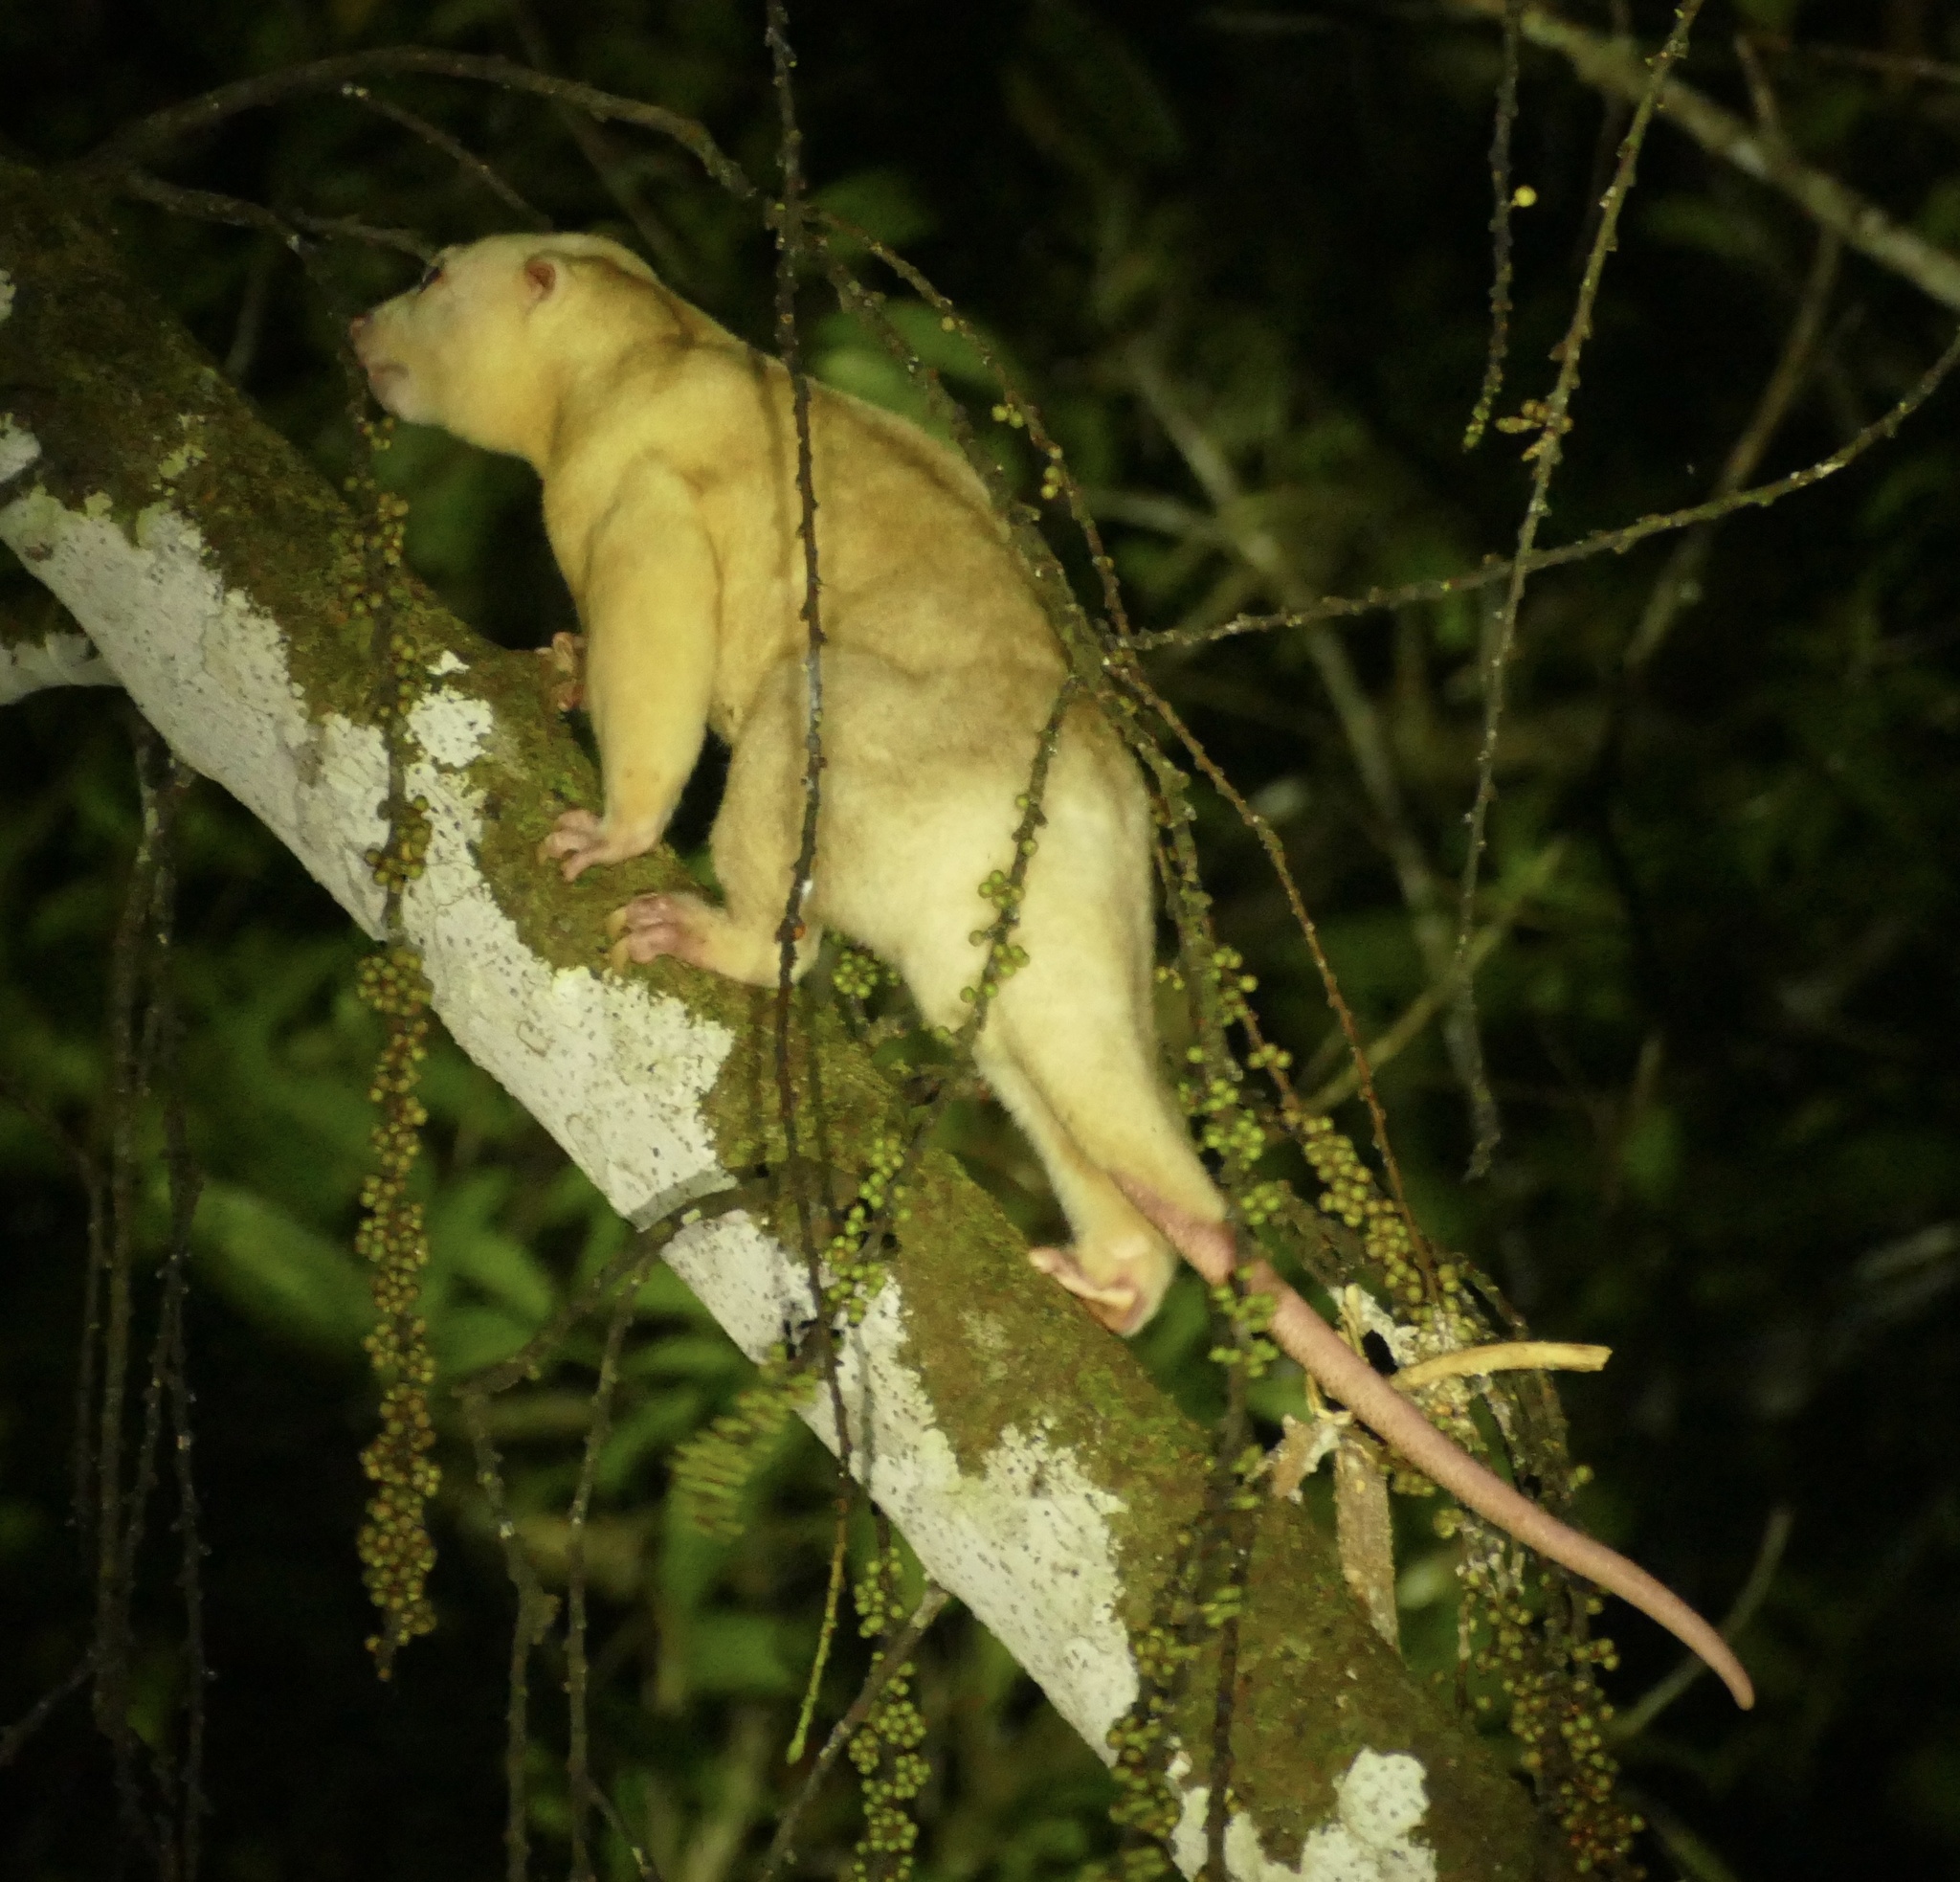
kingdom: Animalia
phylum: Chordata
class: Mammalia
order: Diprotodontia
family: Phalangeridae
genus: Phalanger
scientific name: Phalanger orientalis
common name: Northern common cuscus
